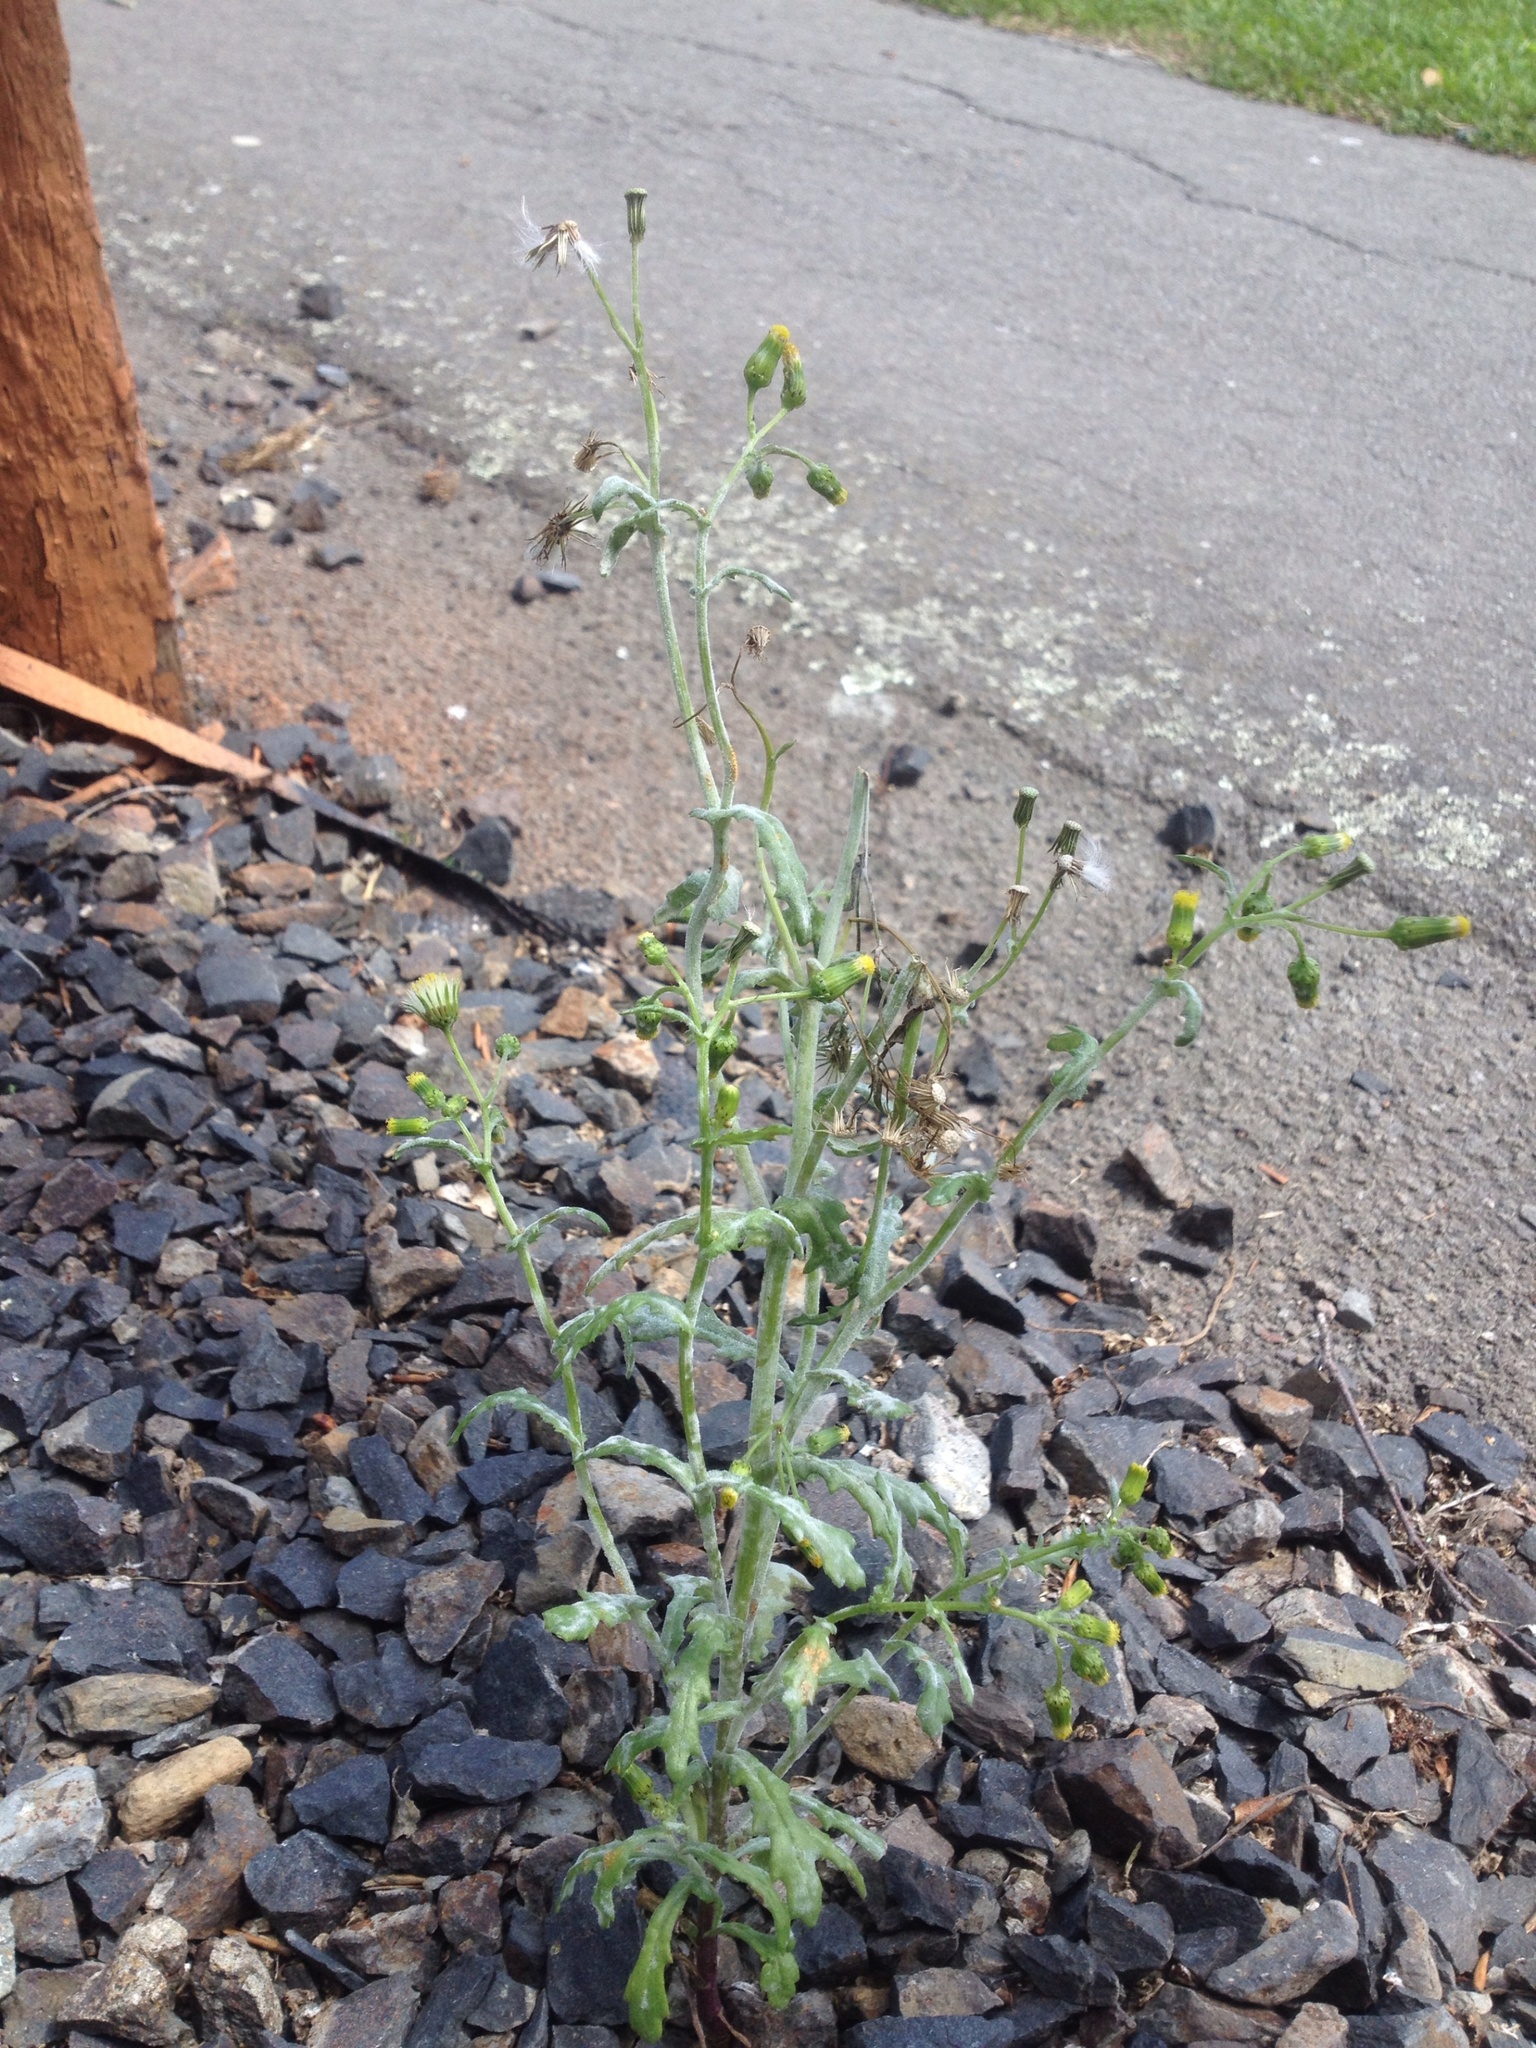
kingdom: Fungi
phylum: Ascomycota
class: Leotiomycetes
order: Helotiales
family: Erysiphaceae
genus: Golovinomyces
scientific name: Golovinomyces fischeri
